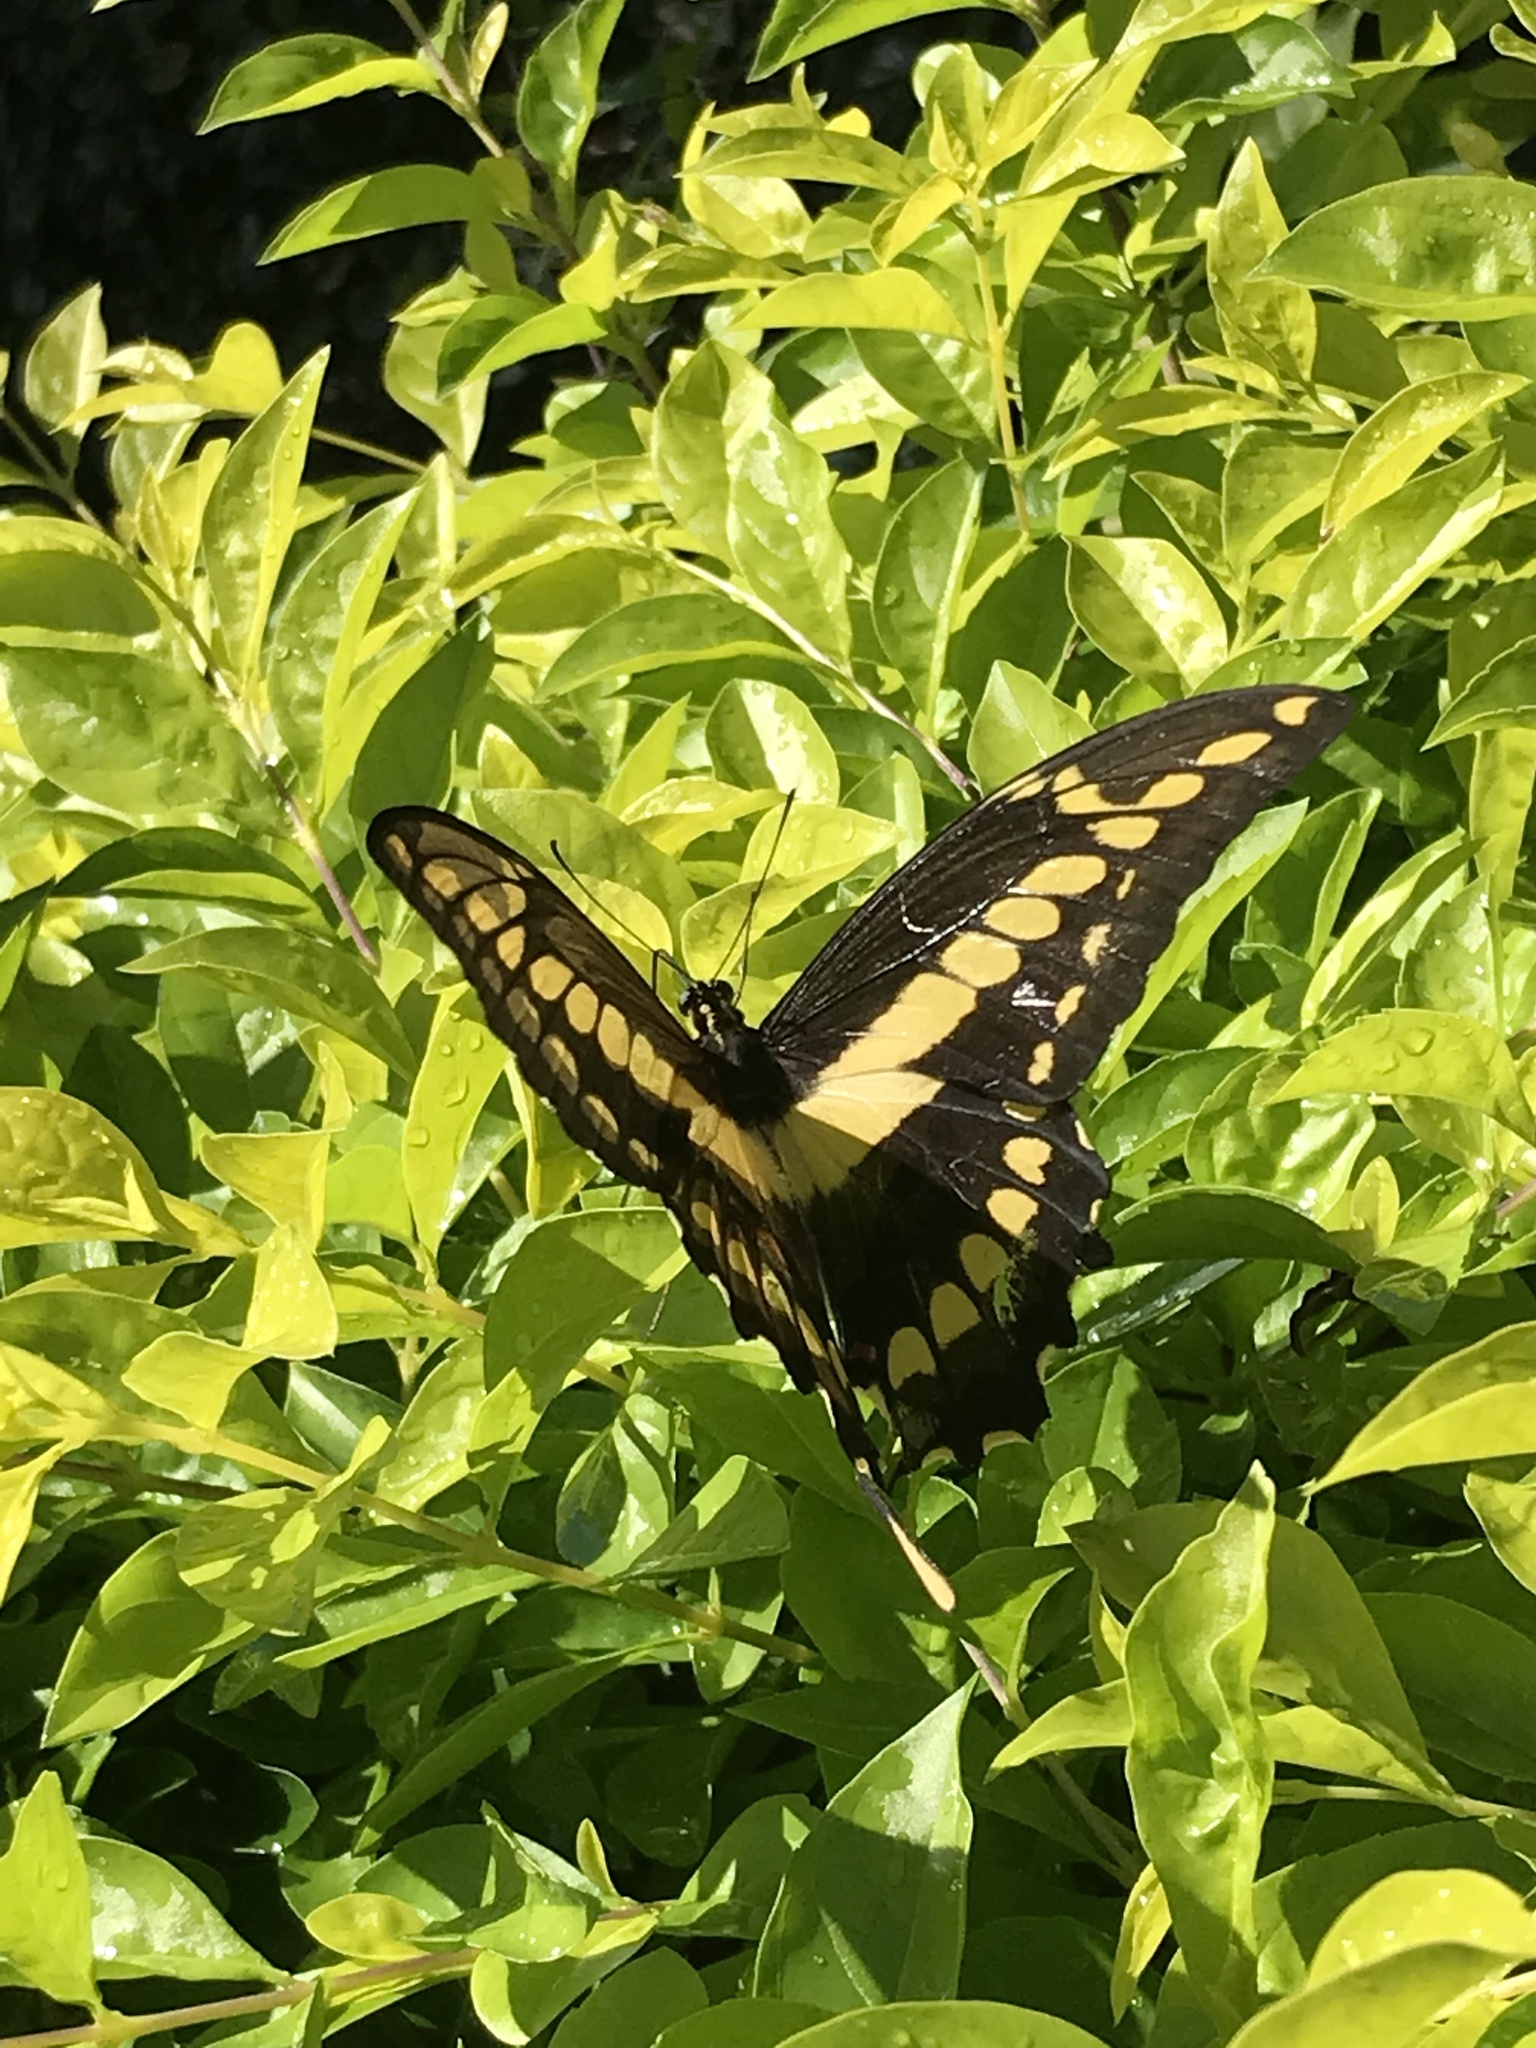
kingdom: Animalia
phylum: Arthropoda
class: Insecta
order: Lepidoptera
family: Papilionidae
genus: Papilio
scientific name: Papilio thoas
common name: King swallowtail
